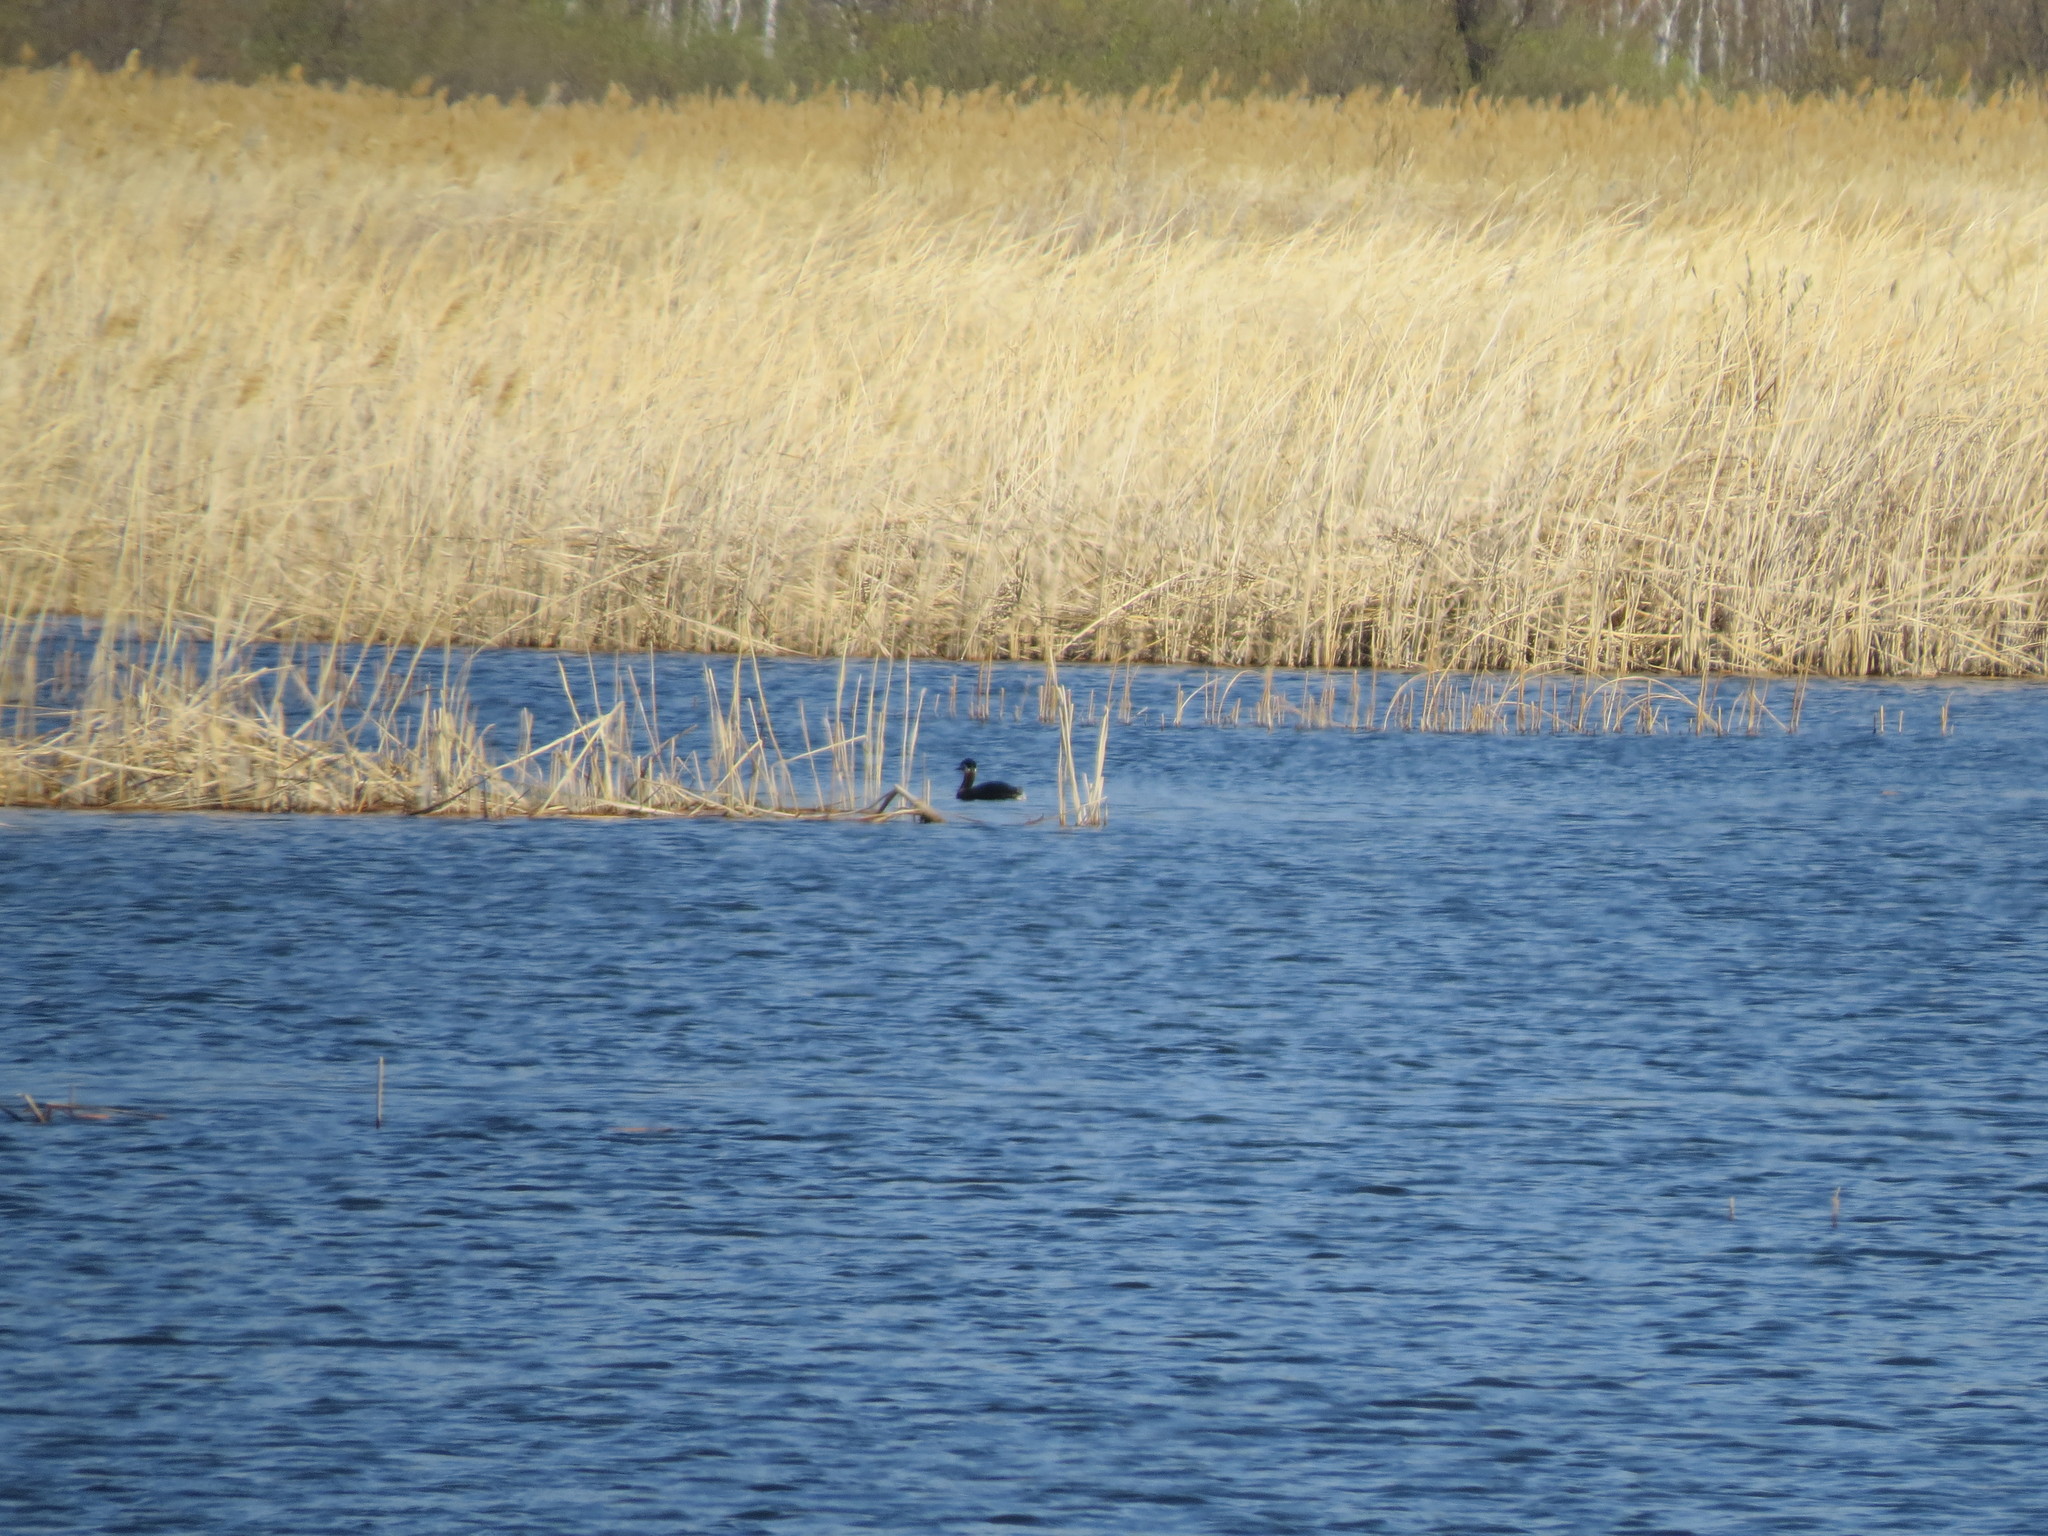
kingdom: Animalia
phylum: Chordata
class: Aves
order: Podicipediformes
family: Podicipedidae
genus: Podiceps
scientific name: Podiceps grisegena
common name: Red-necked grebe
